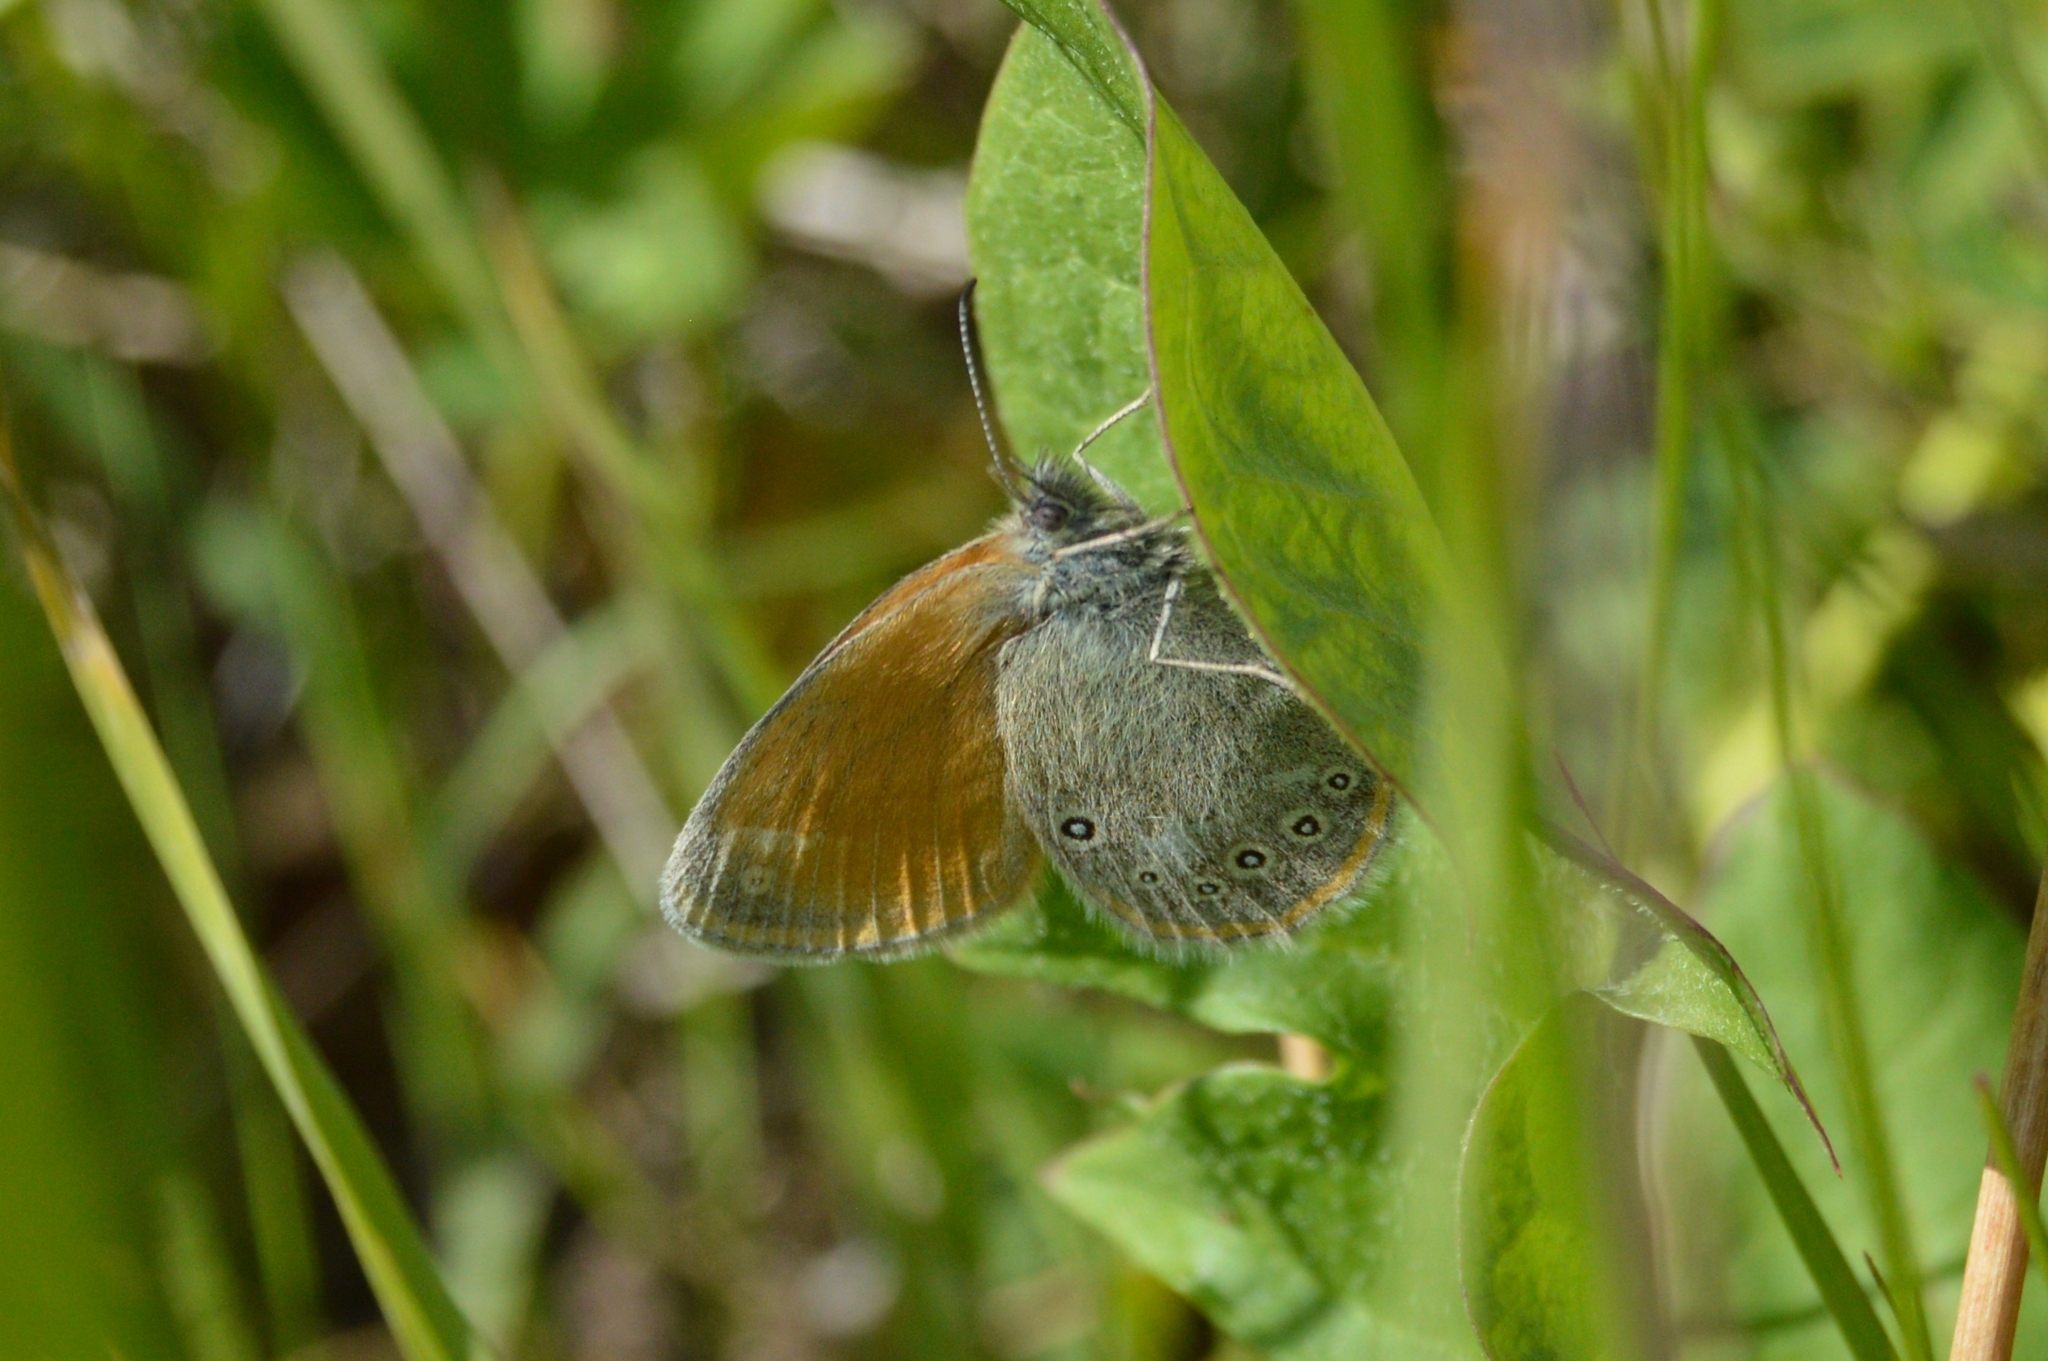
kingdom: Animalia
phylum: Arthropoda
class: Insecta
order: Lepidoptera
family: Nymphalidae
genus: Coenonympha
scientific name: Coenonympha iphis
